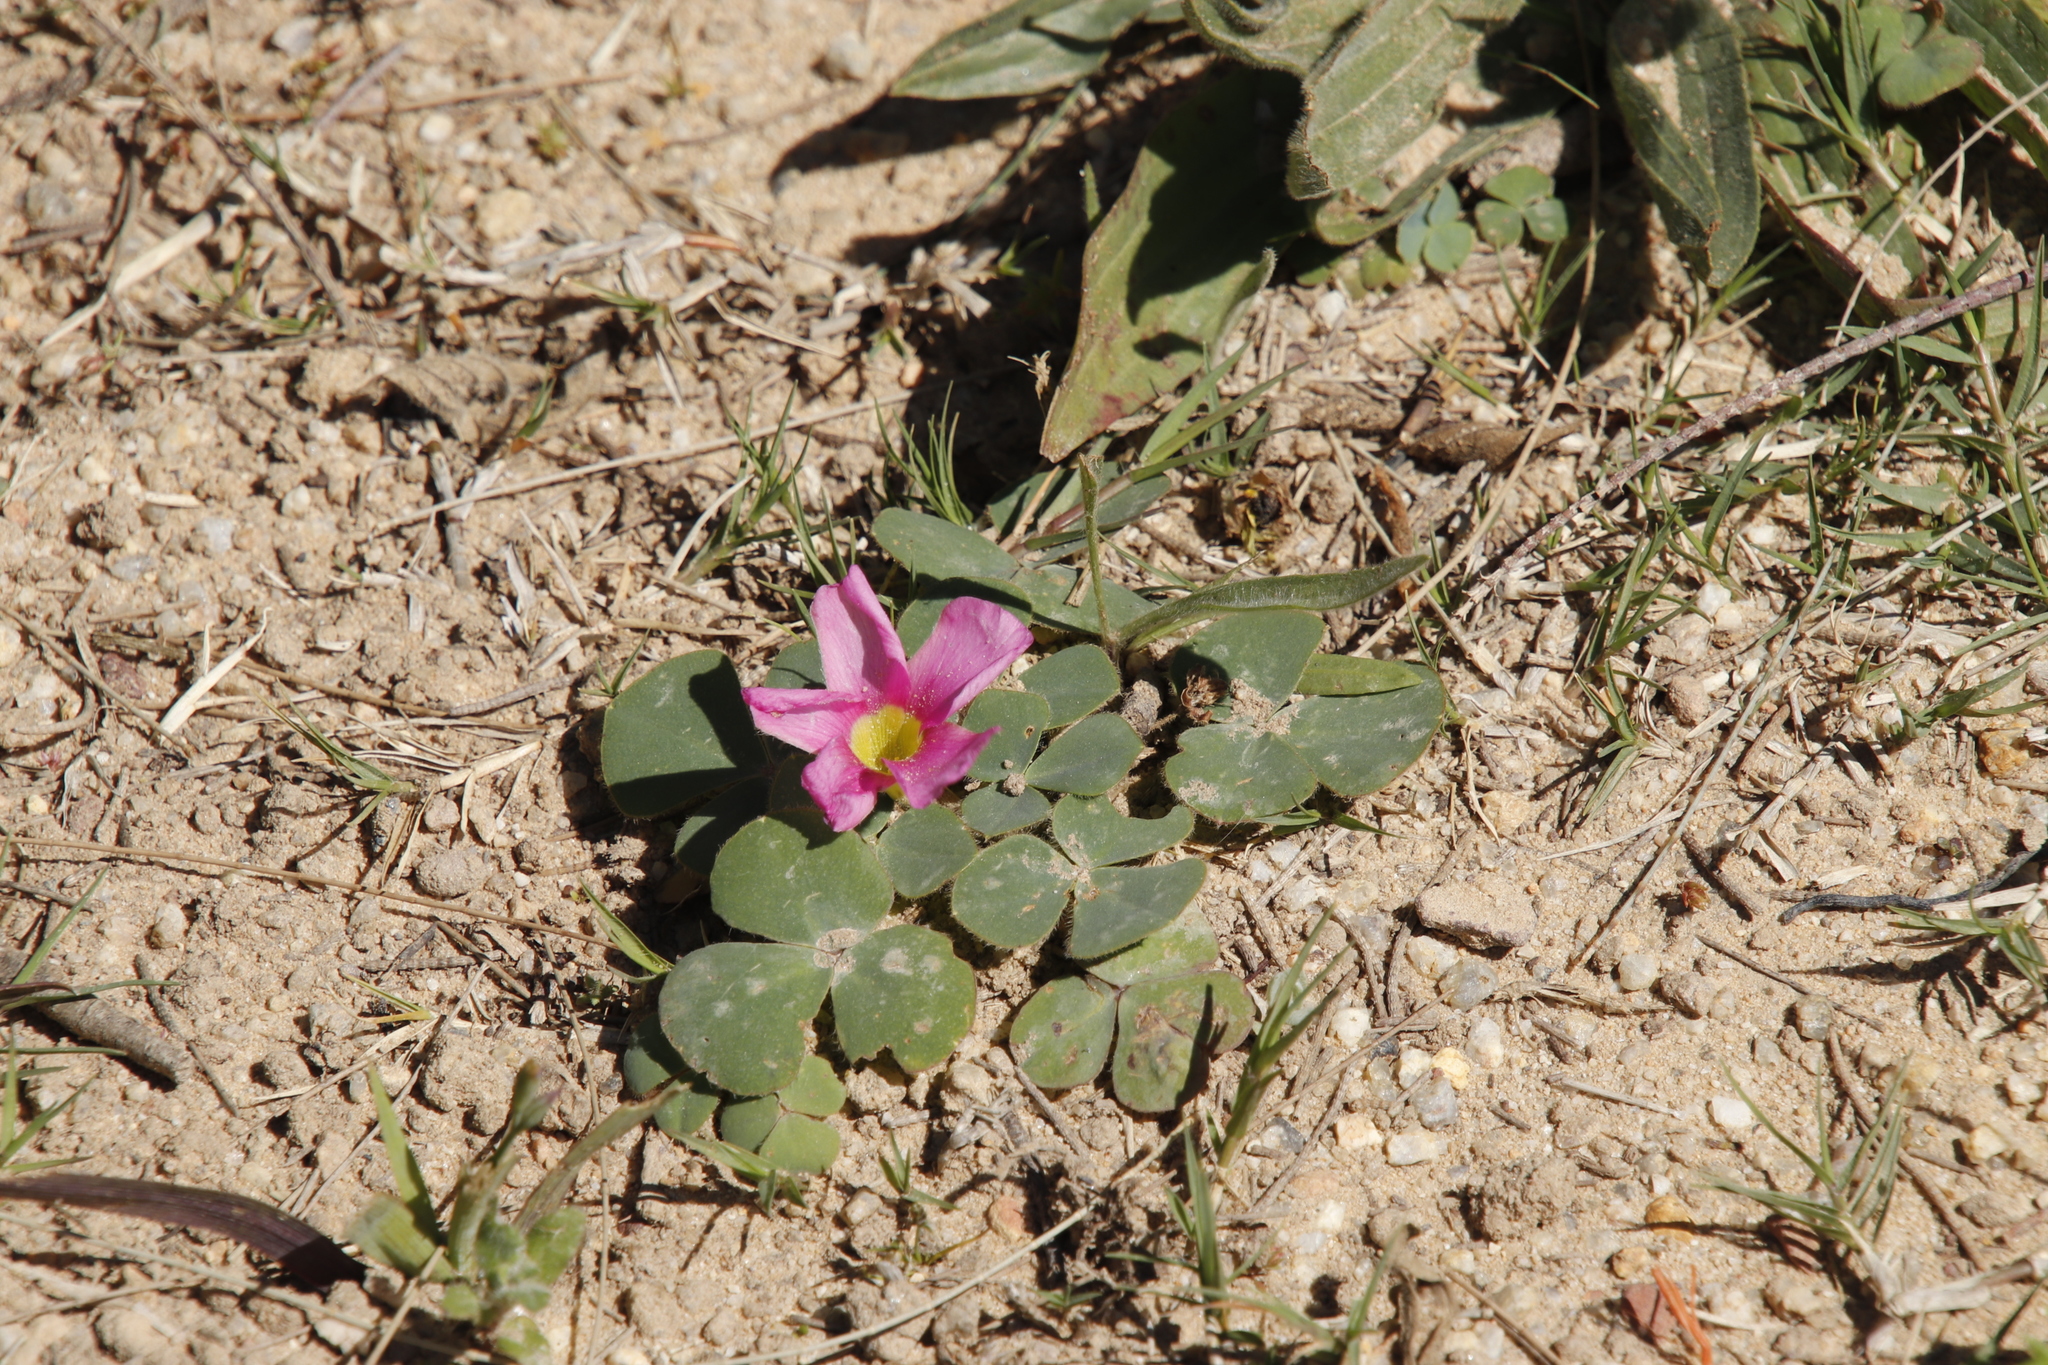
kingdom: Plantae
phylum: Tracheophyta
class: Magnoliopsida
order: Oxalidales
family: Oxalidaceae
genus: Oxalis
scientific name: Oxalis purpurea
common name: Purple woodsorrel
